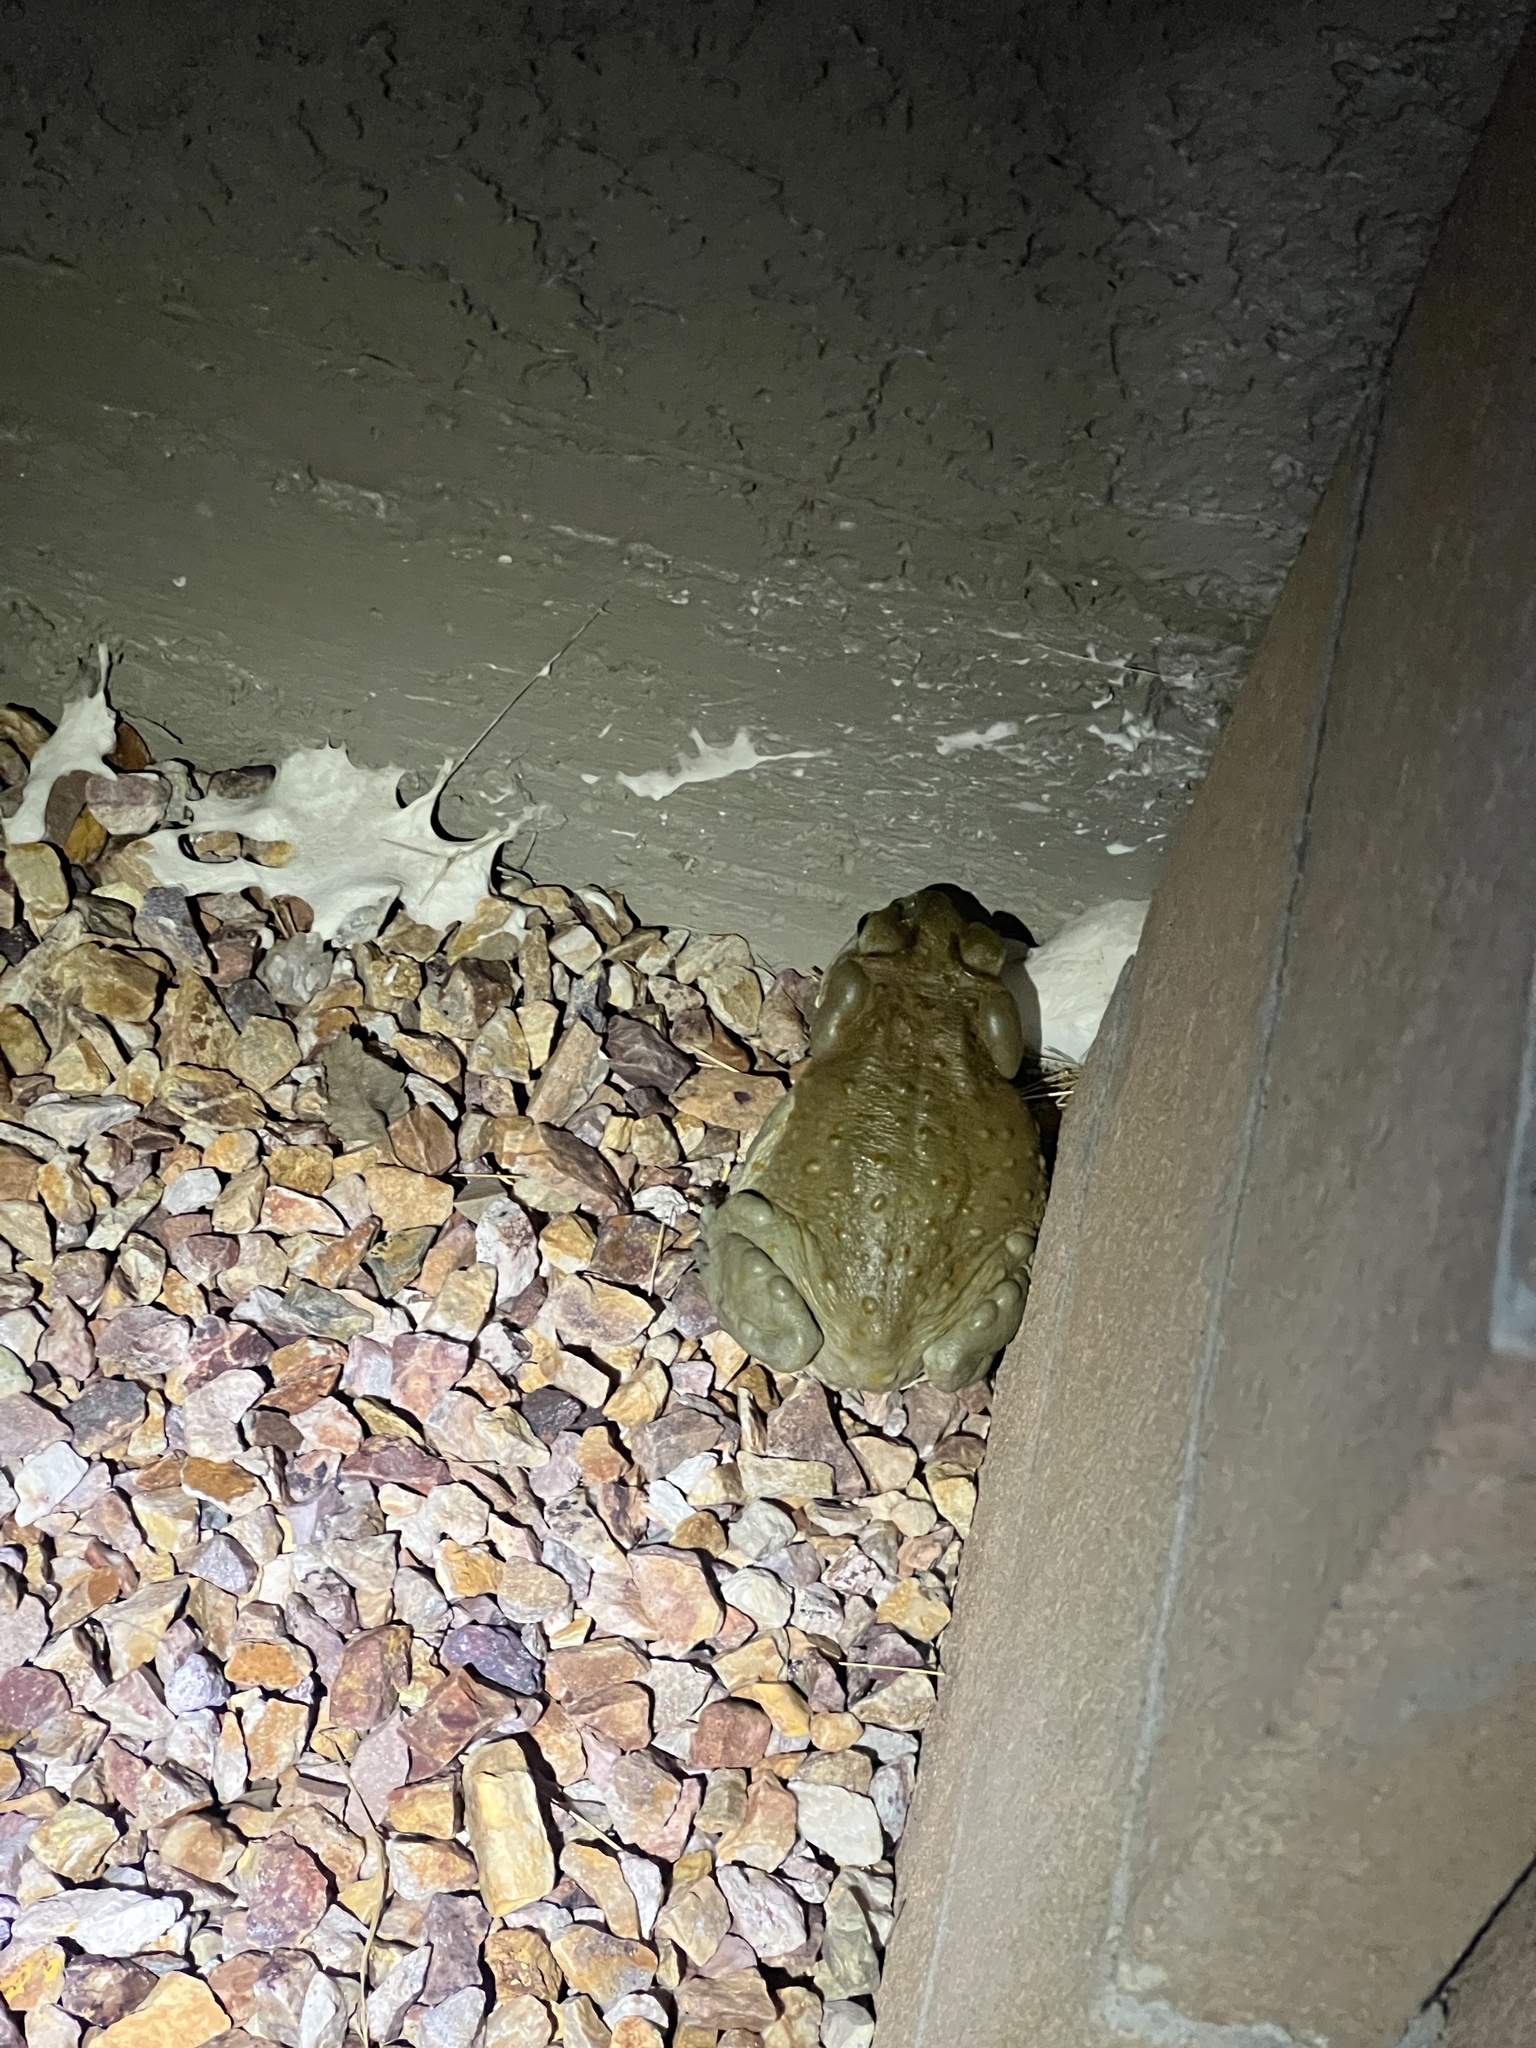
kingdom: Animalia
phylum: Chordata
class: Amphibia
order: Anura
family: Bufonidae
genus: Incilius
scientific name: Incilius alvarius
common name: Sonoran desert toad
